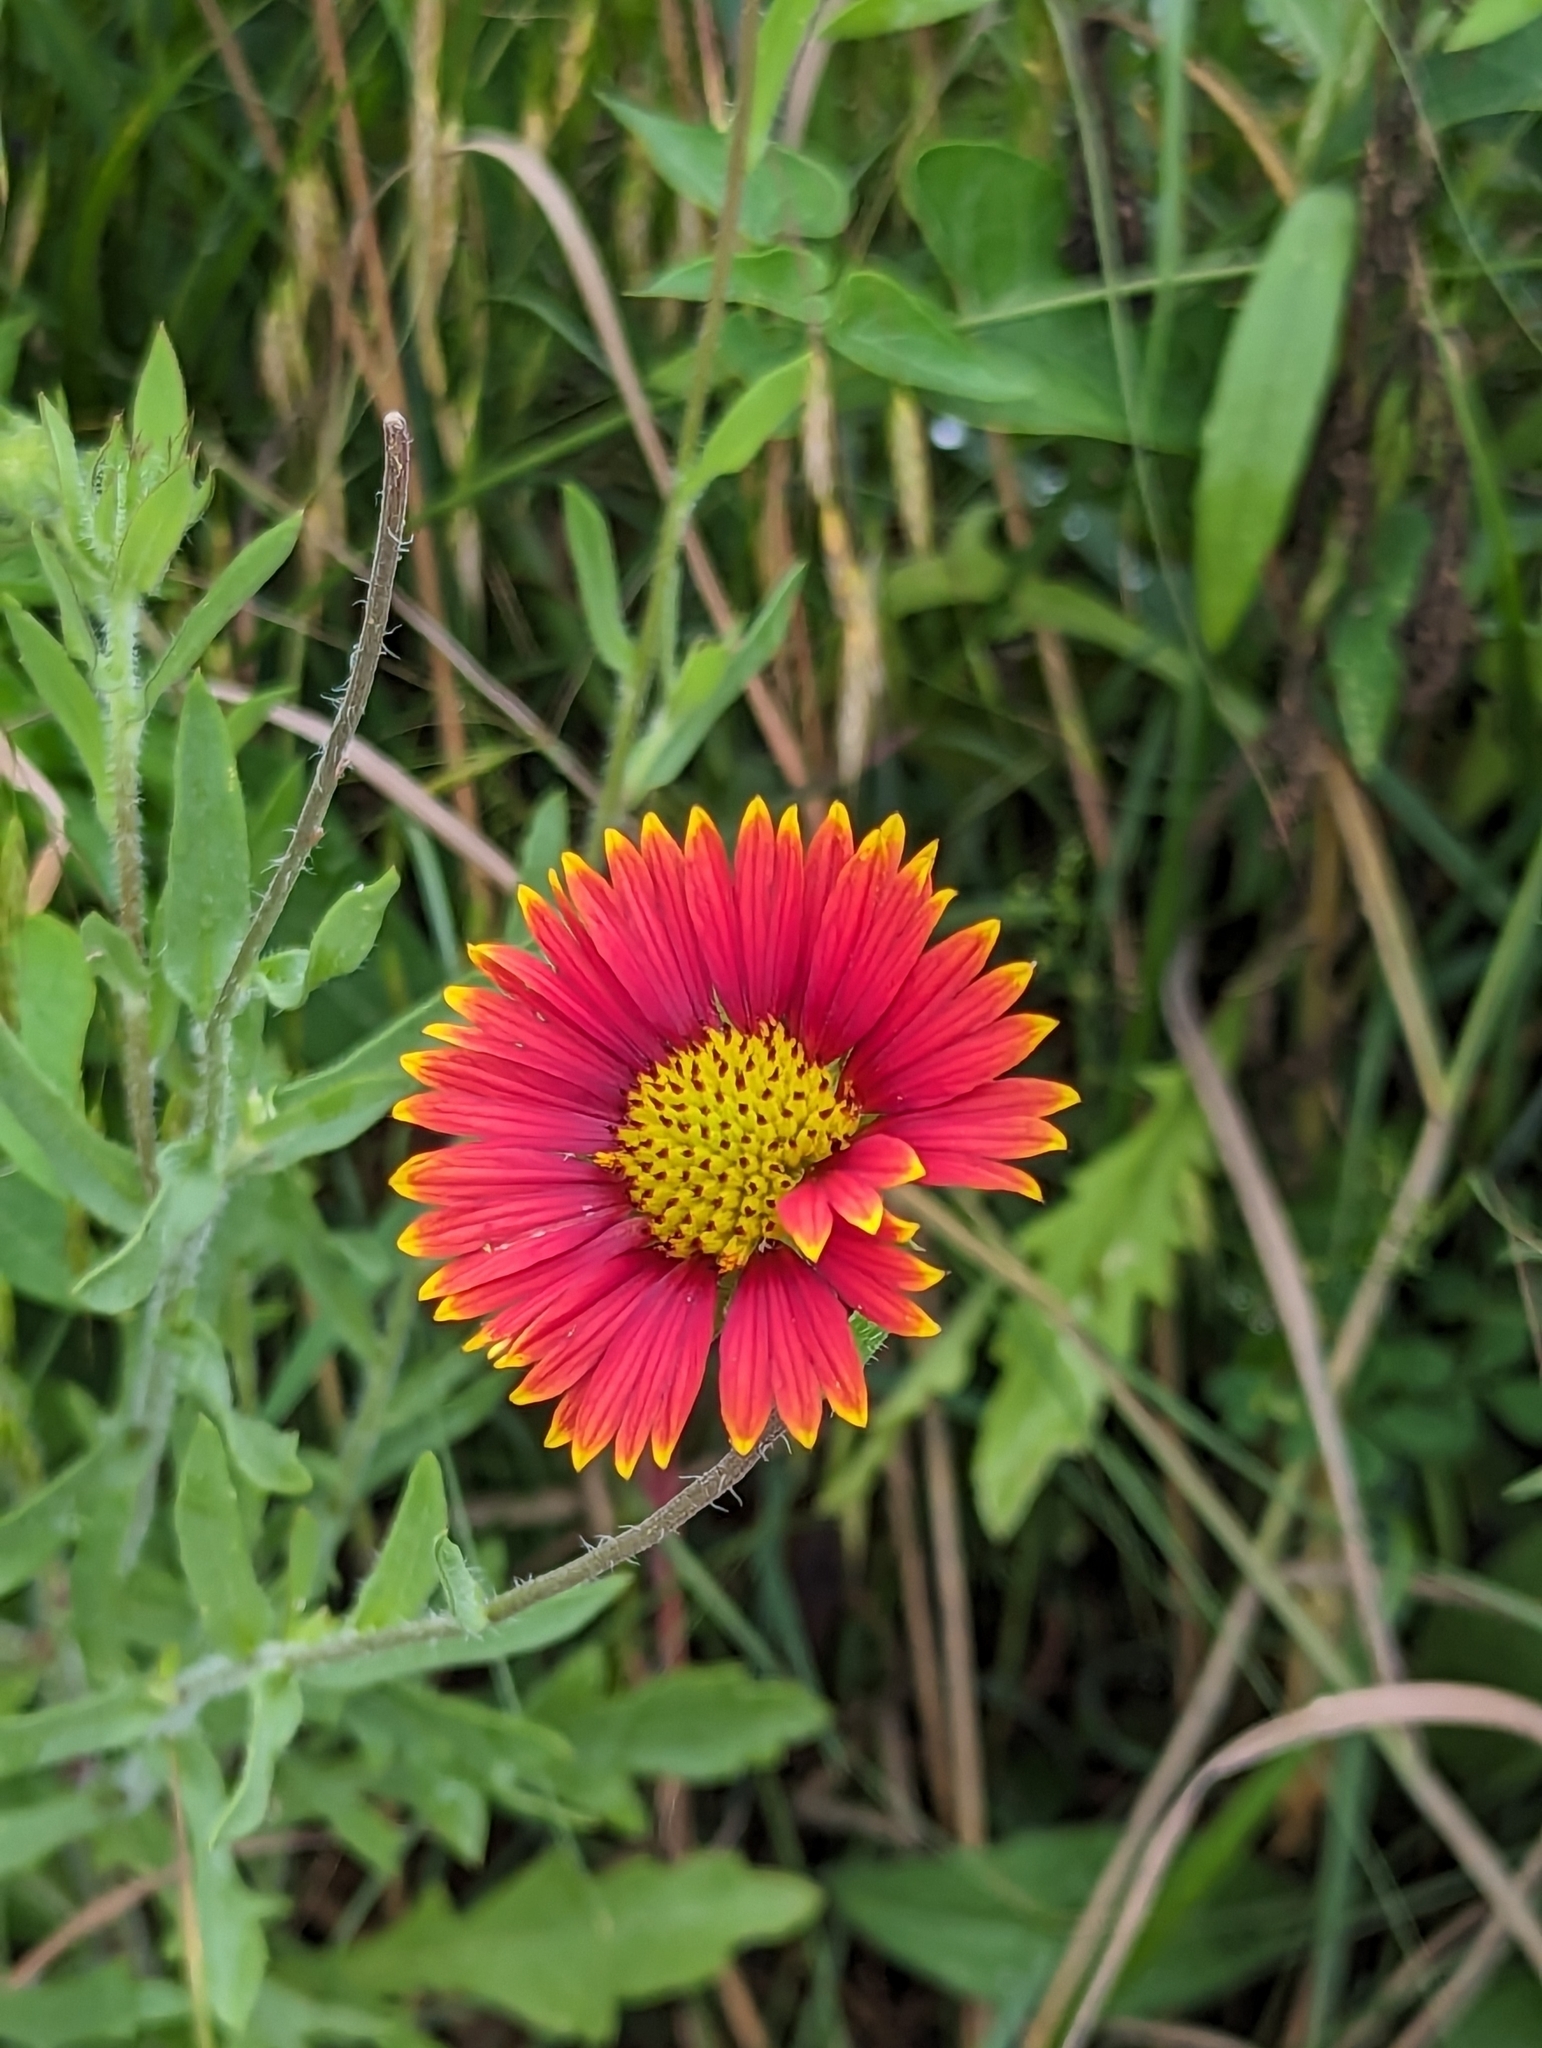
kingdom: Plantae
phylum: Tracheophyta
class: Magnoliopsida
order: Asterales
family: Asteraceae
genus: Gaillardia
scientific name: Gaillardia pulchella
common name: Firewheel
